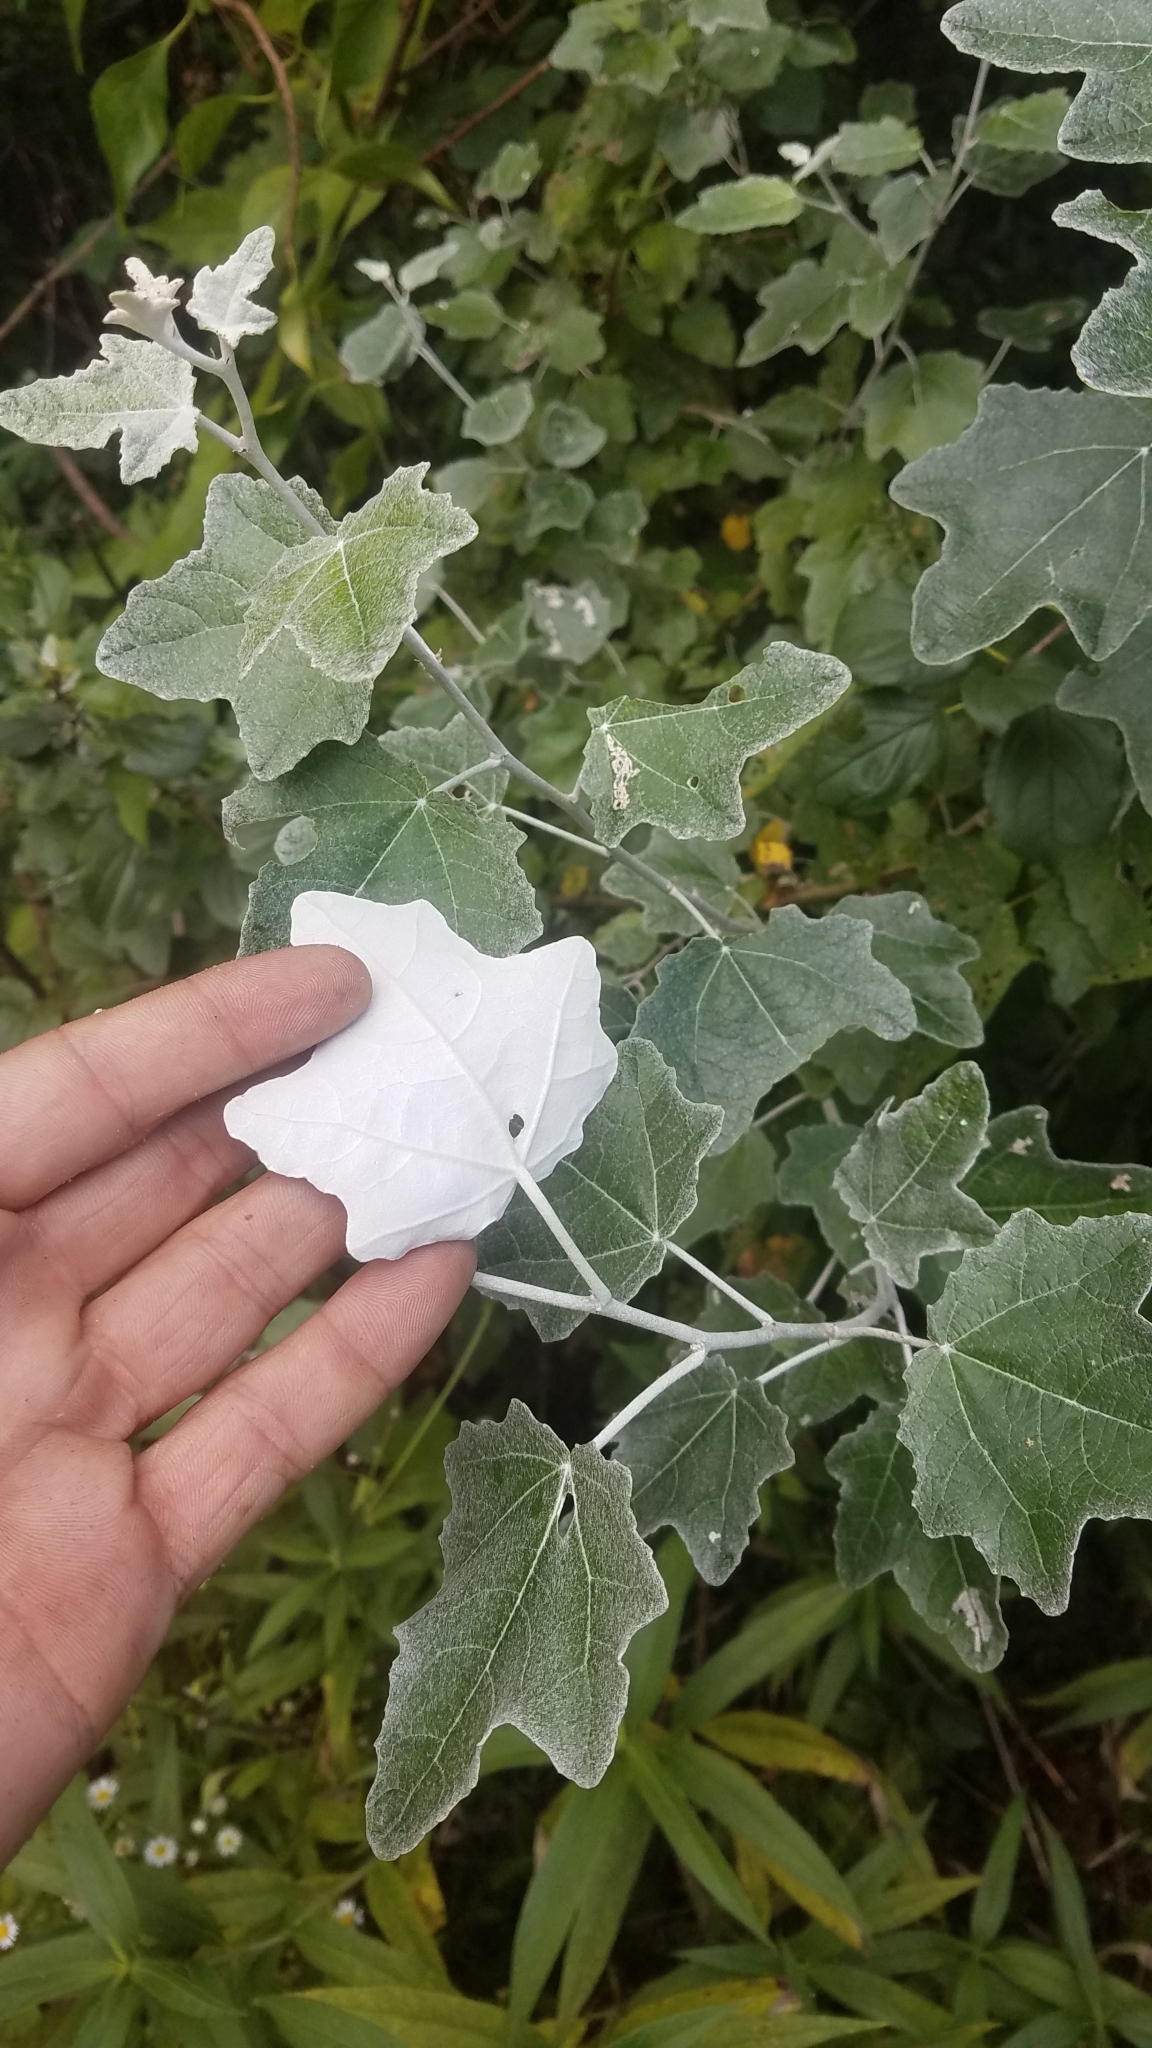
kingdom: Plantae
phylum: Tracheophyta
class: Magnoliopsida
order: Malpighiales
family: Salicaceae
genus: Populus
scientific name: Populus alba
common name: White poplar
